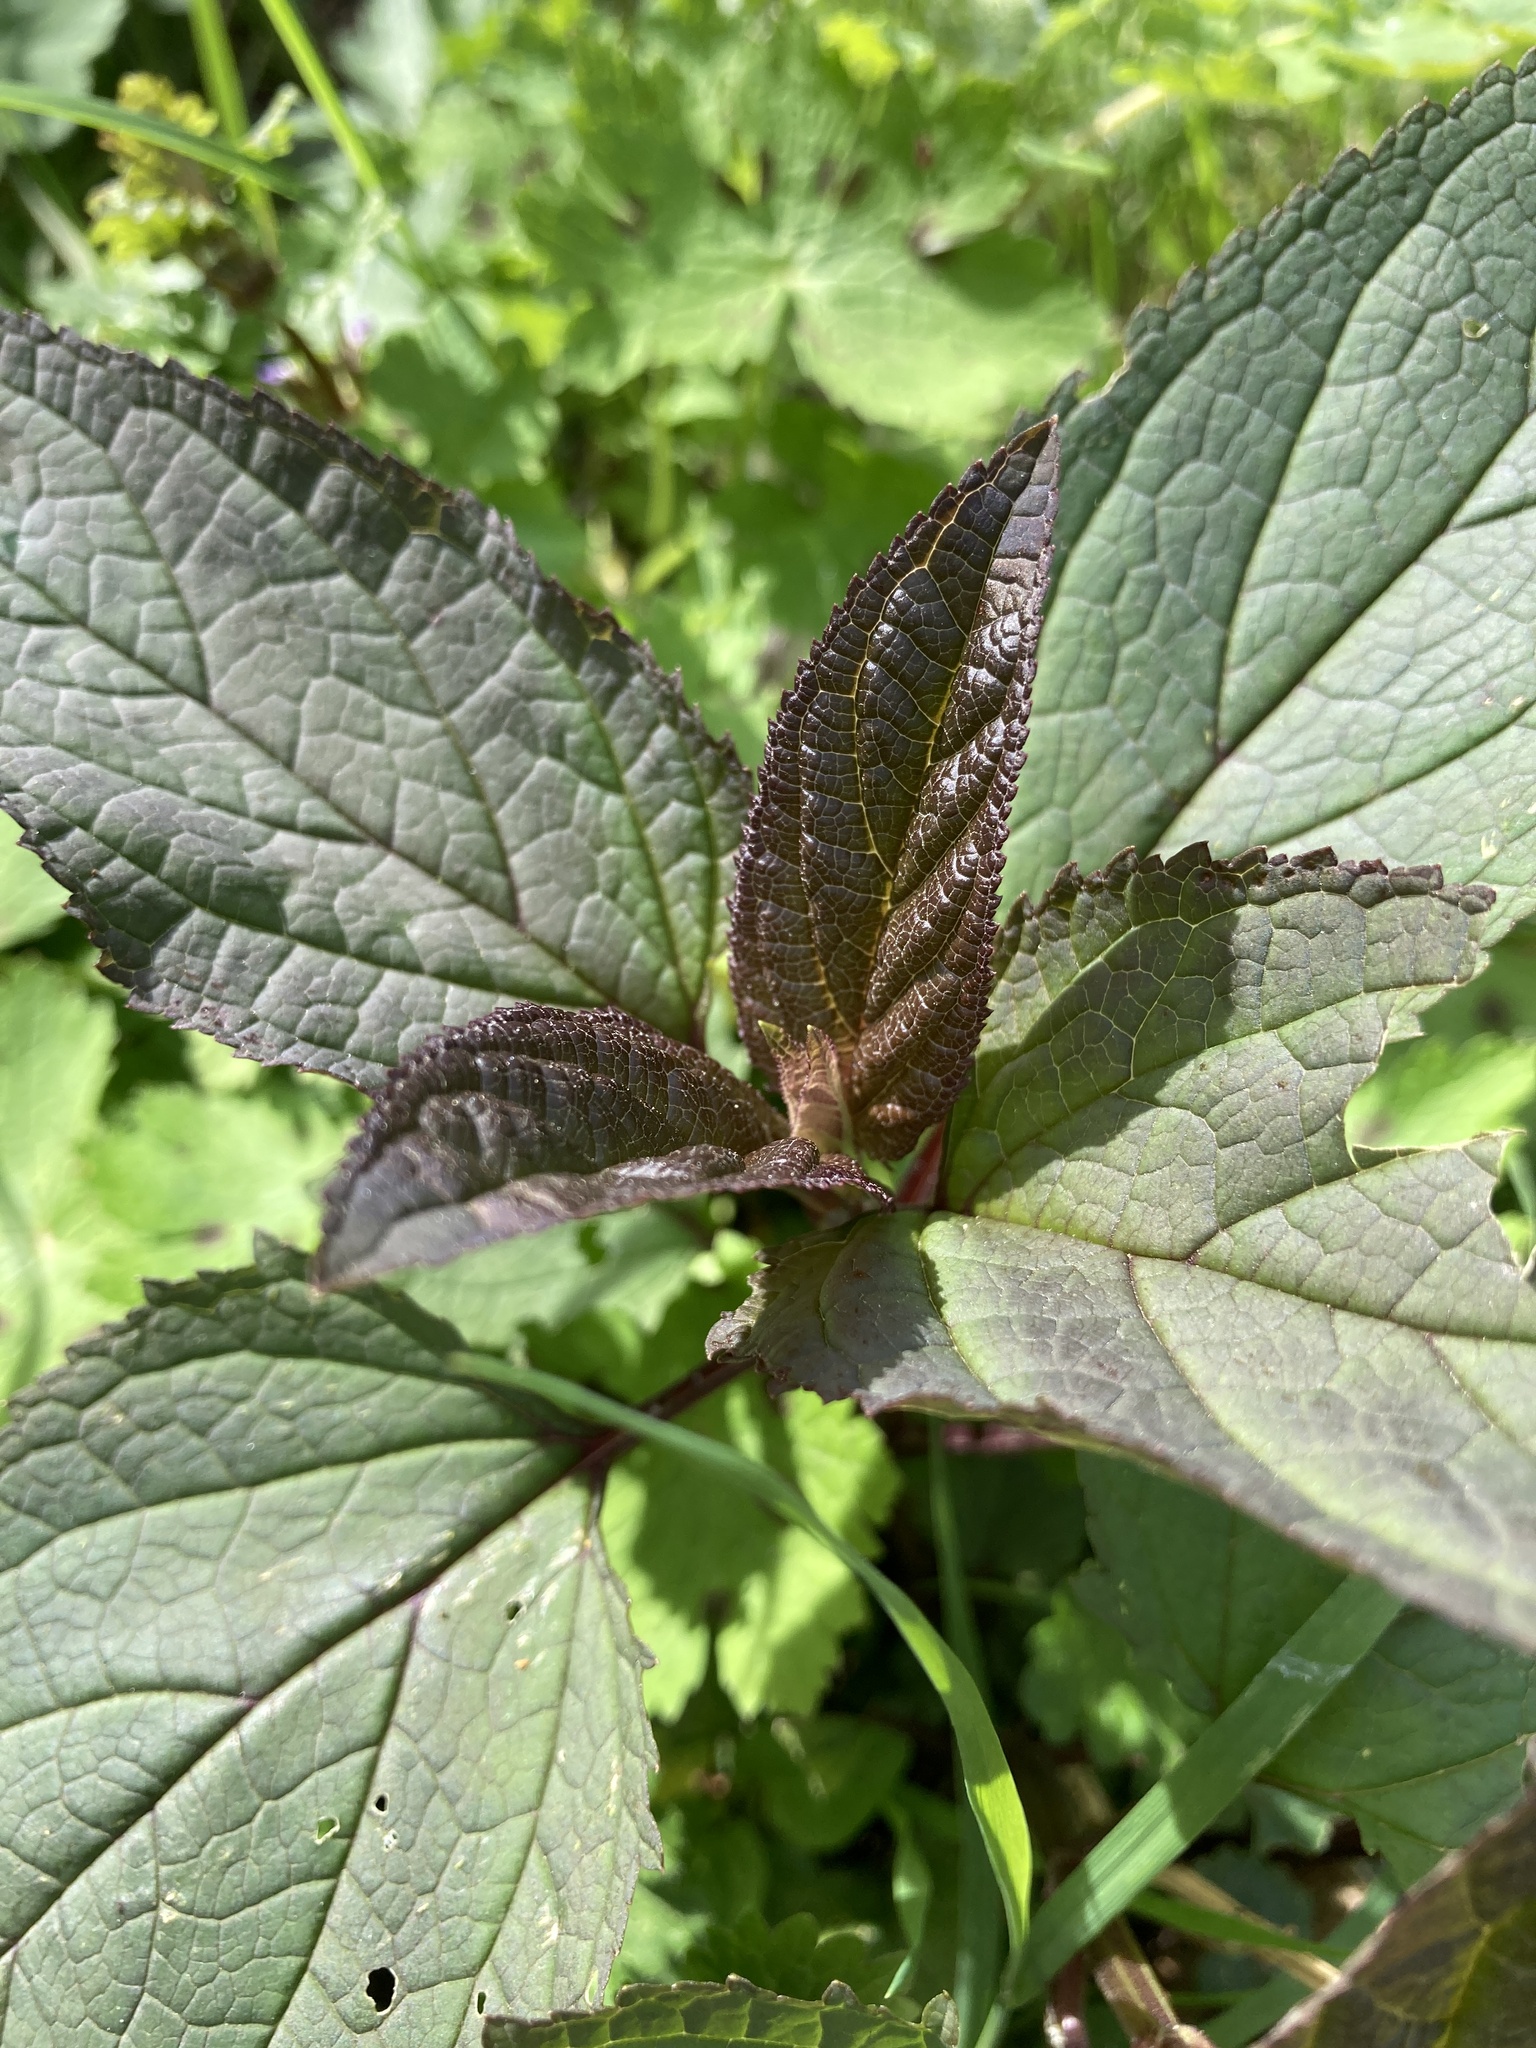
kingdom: Plantae
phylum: Tracheophyta
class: Magnoliopsida
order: Lamiales
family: Scrophulariaceae
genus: Scrophularia
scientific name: Scrophularia nodosa
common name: Common figwort
